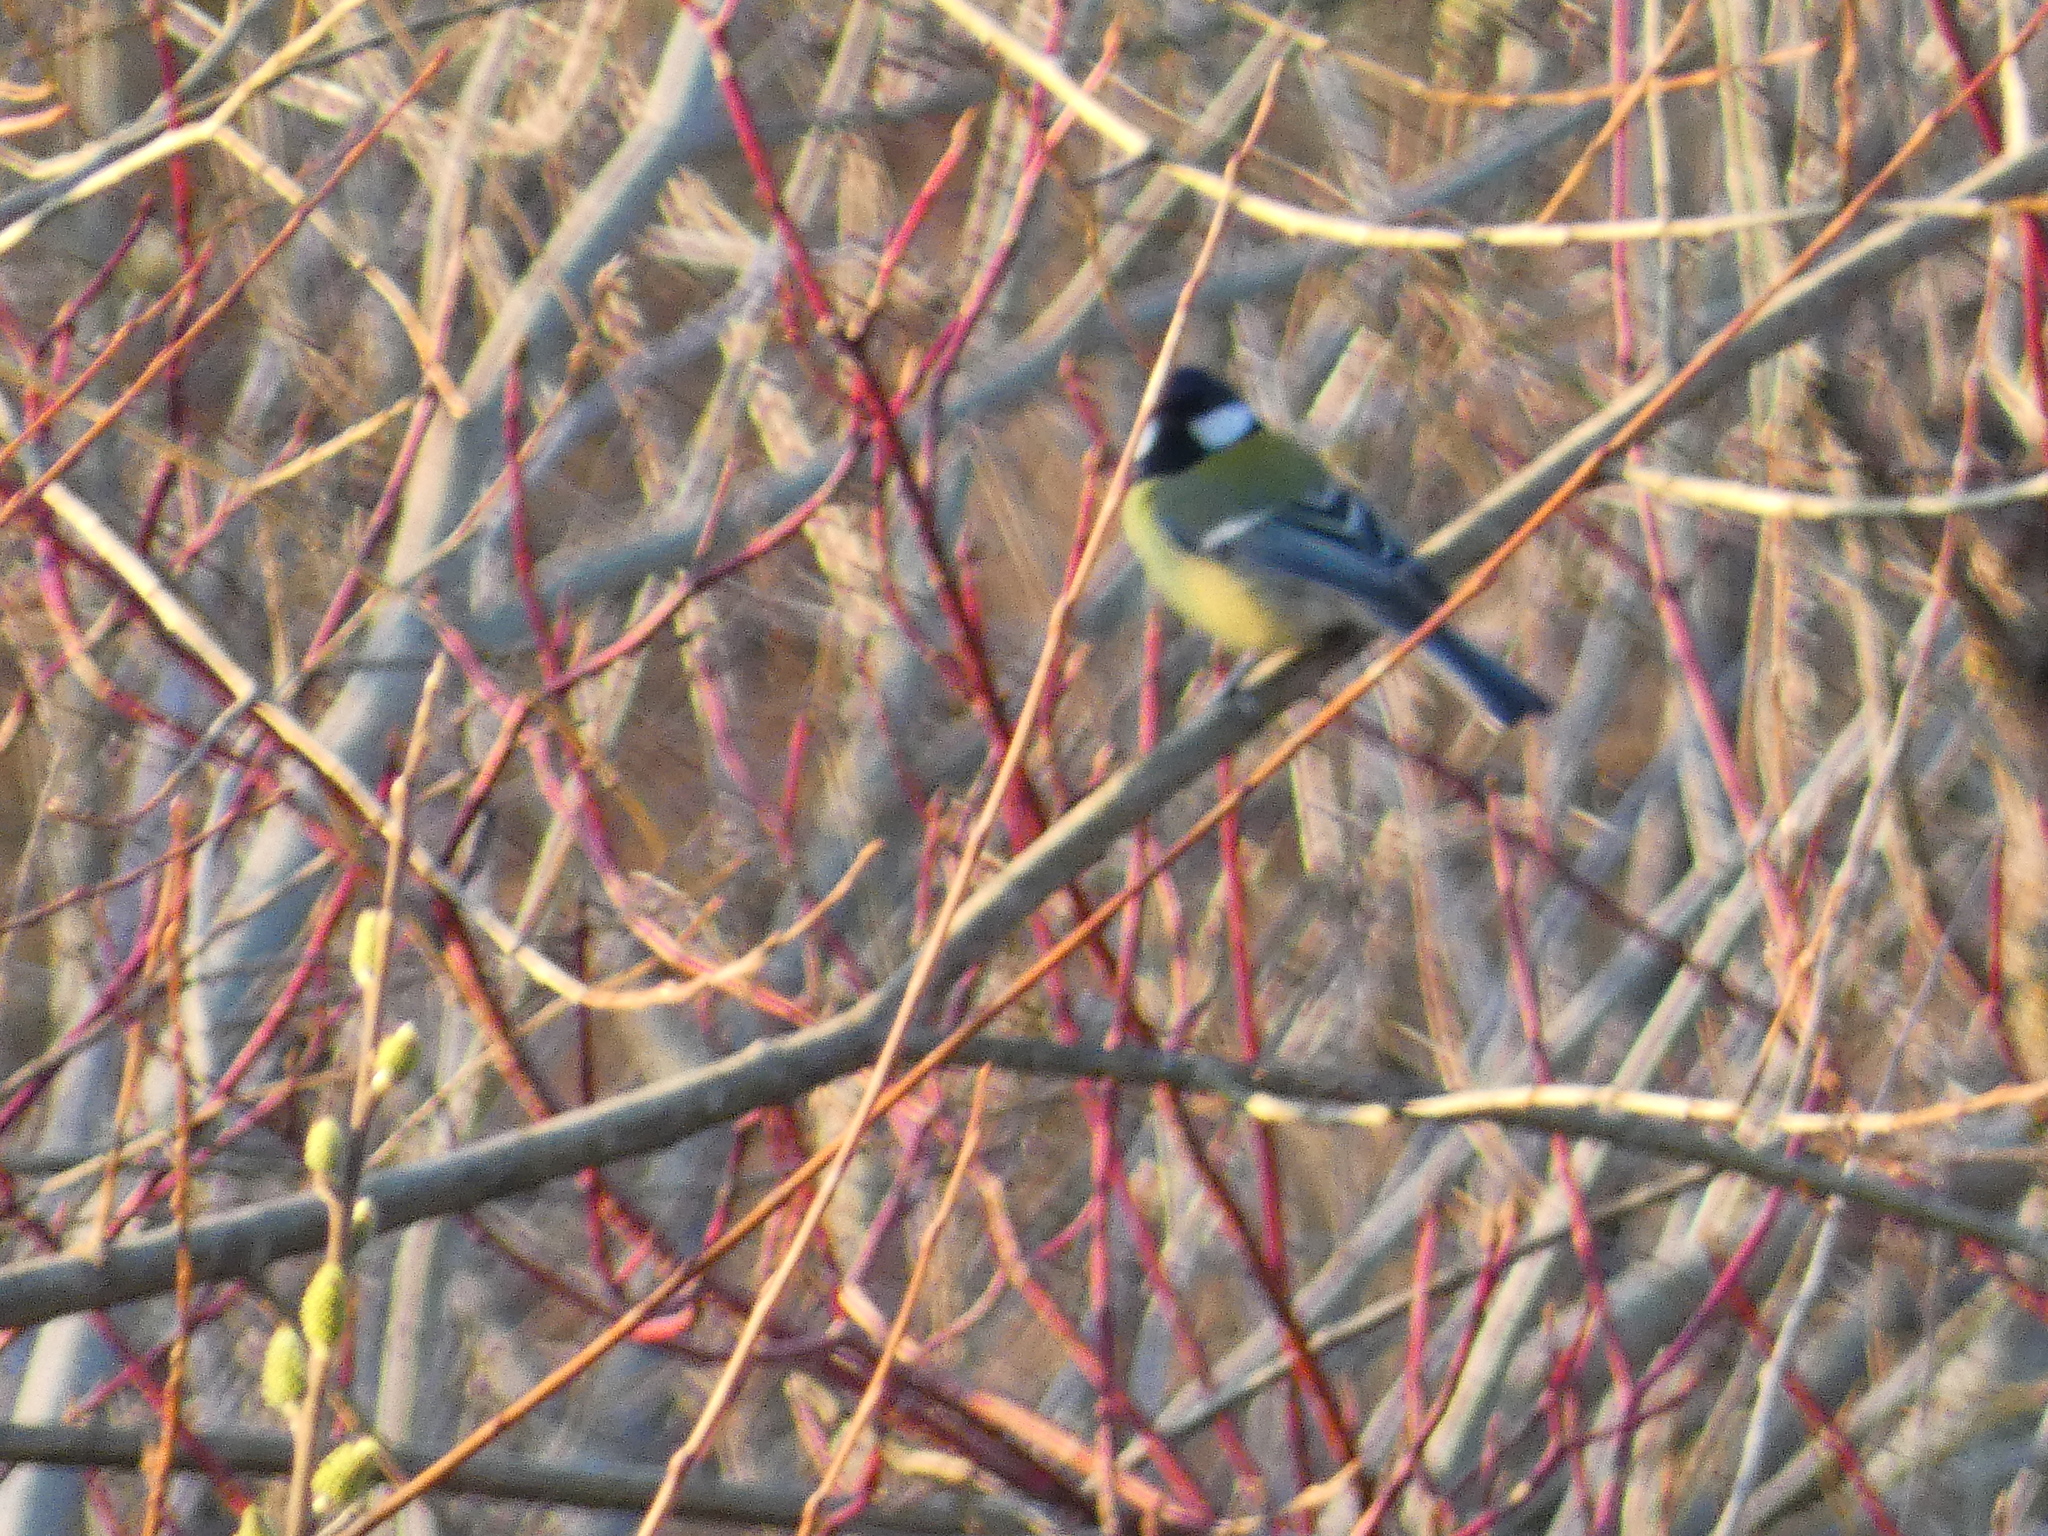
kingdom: Animalia
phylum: Chordata
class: Aves
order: Passeriformes
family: Paridae
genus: Parus
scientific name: Parus major
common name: Great tit
